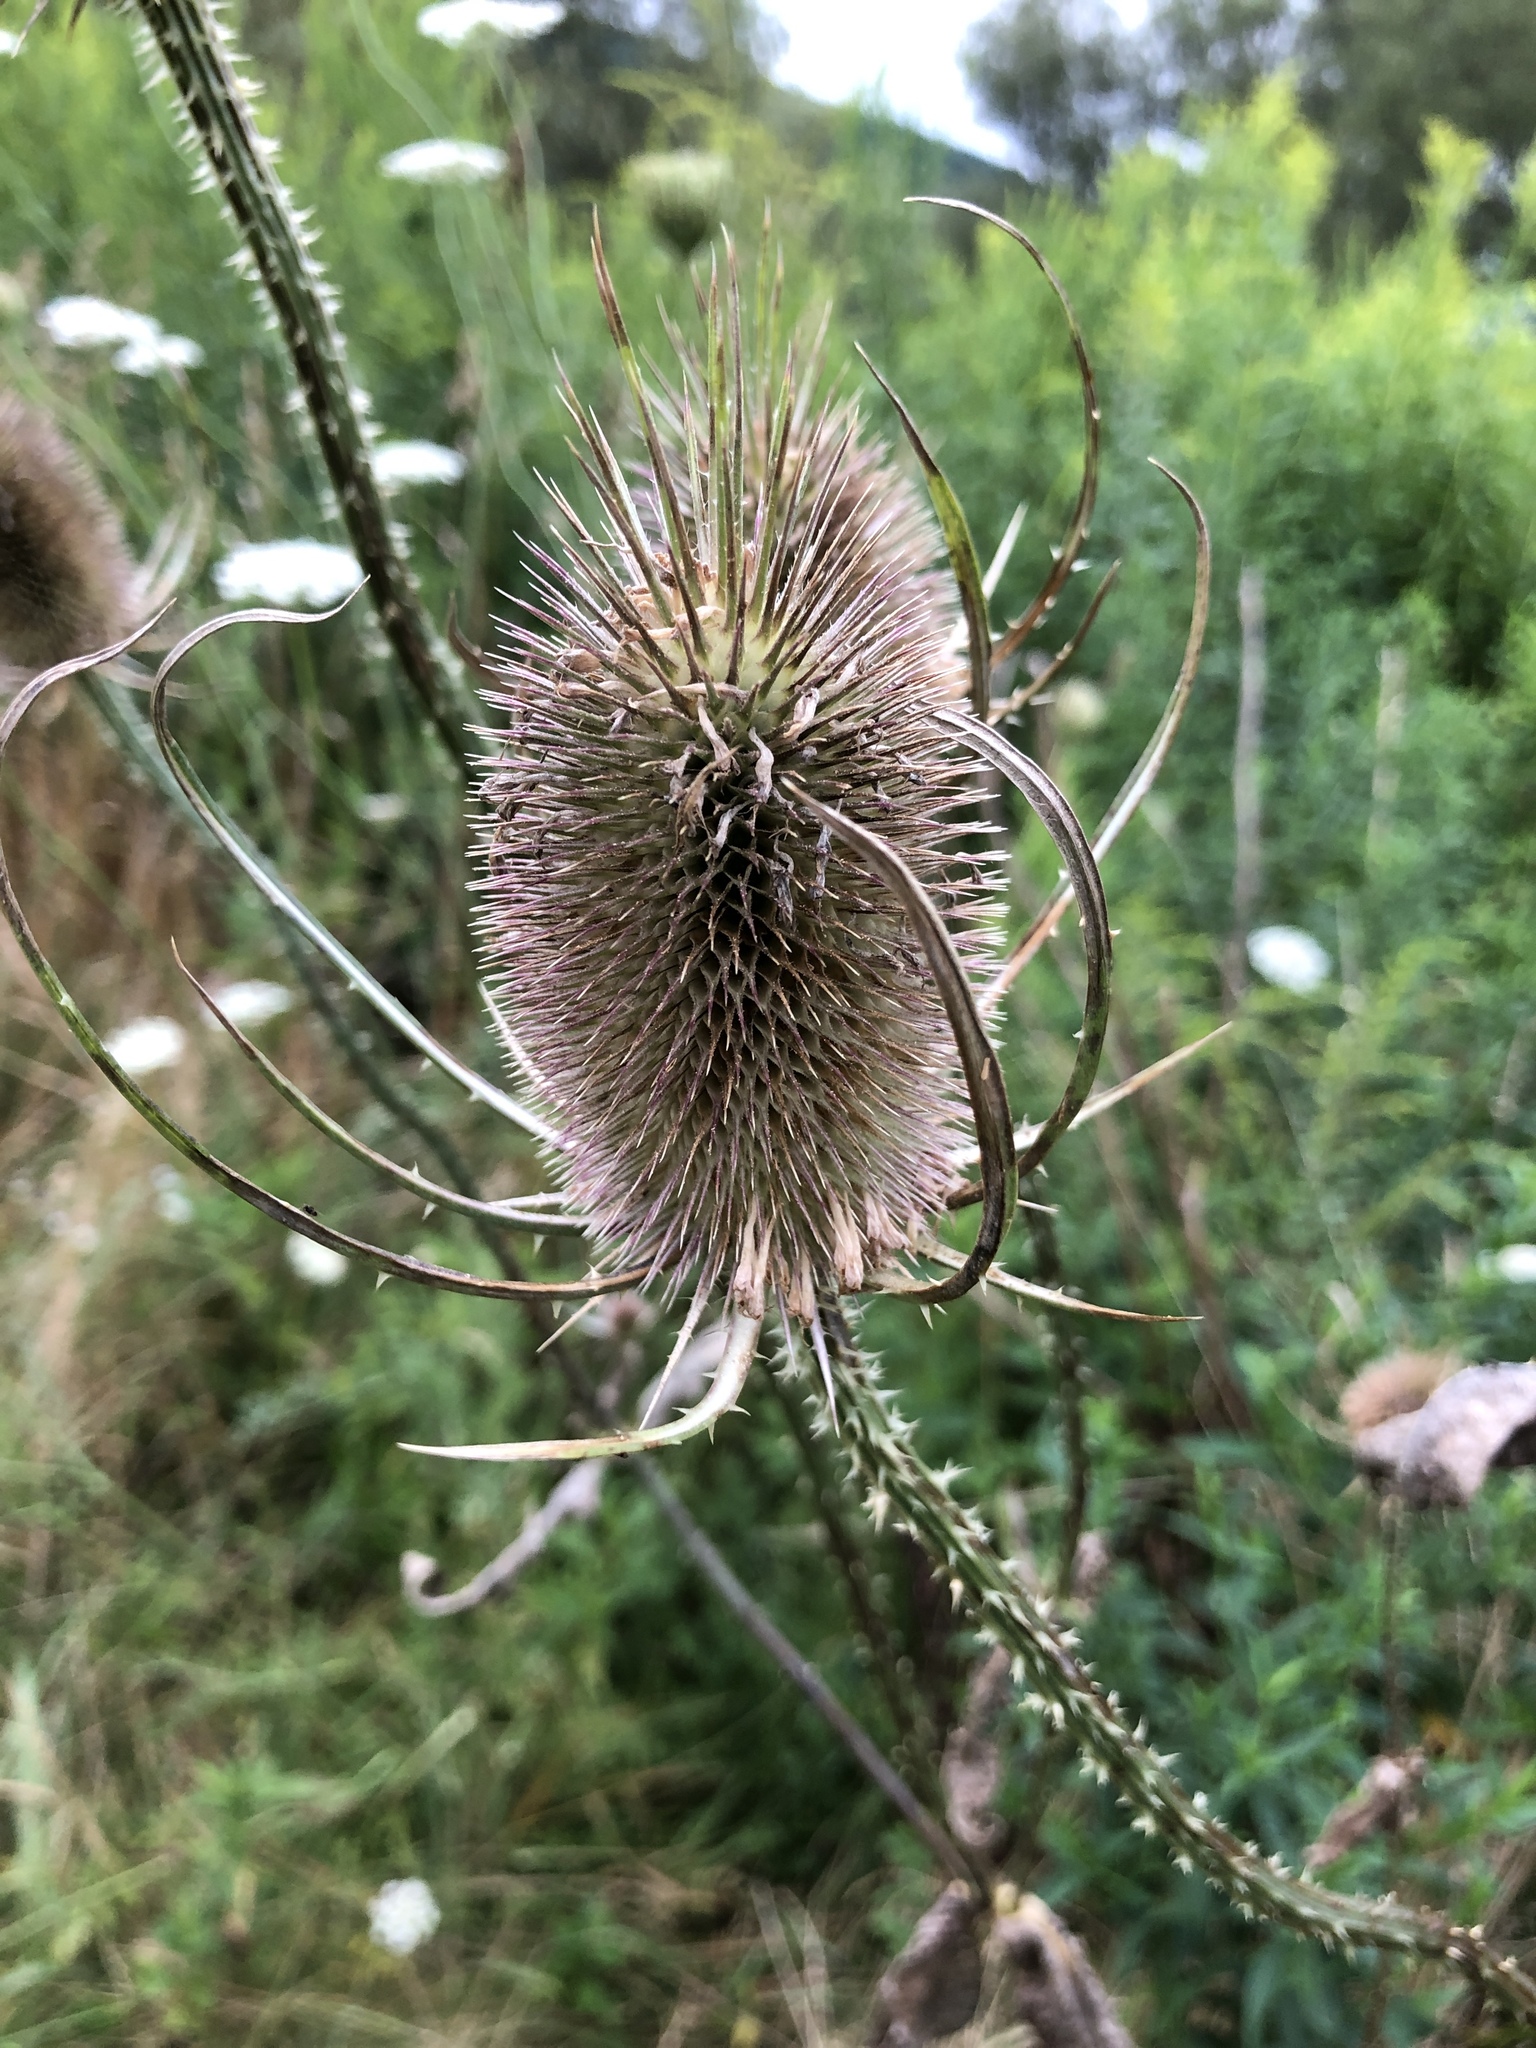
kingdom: Plantae
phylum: Tracheophyta
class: Magnoliopsida
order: Dipsacales
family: Caprifoliaceae
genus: Dipsacus
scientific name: Dipsacus fullonum
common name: Teasel
